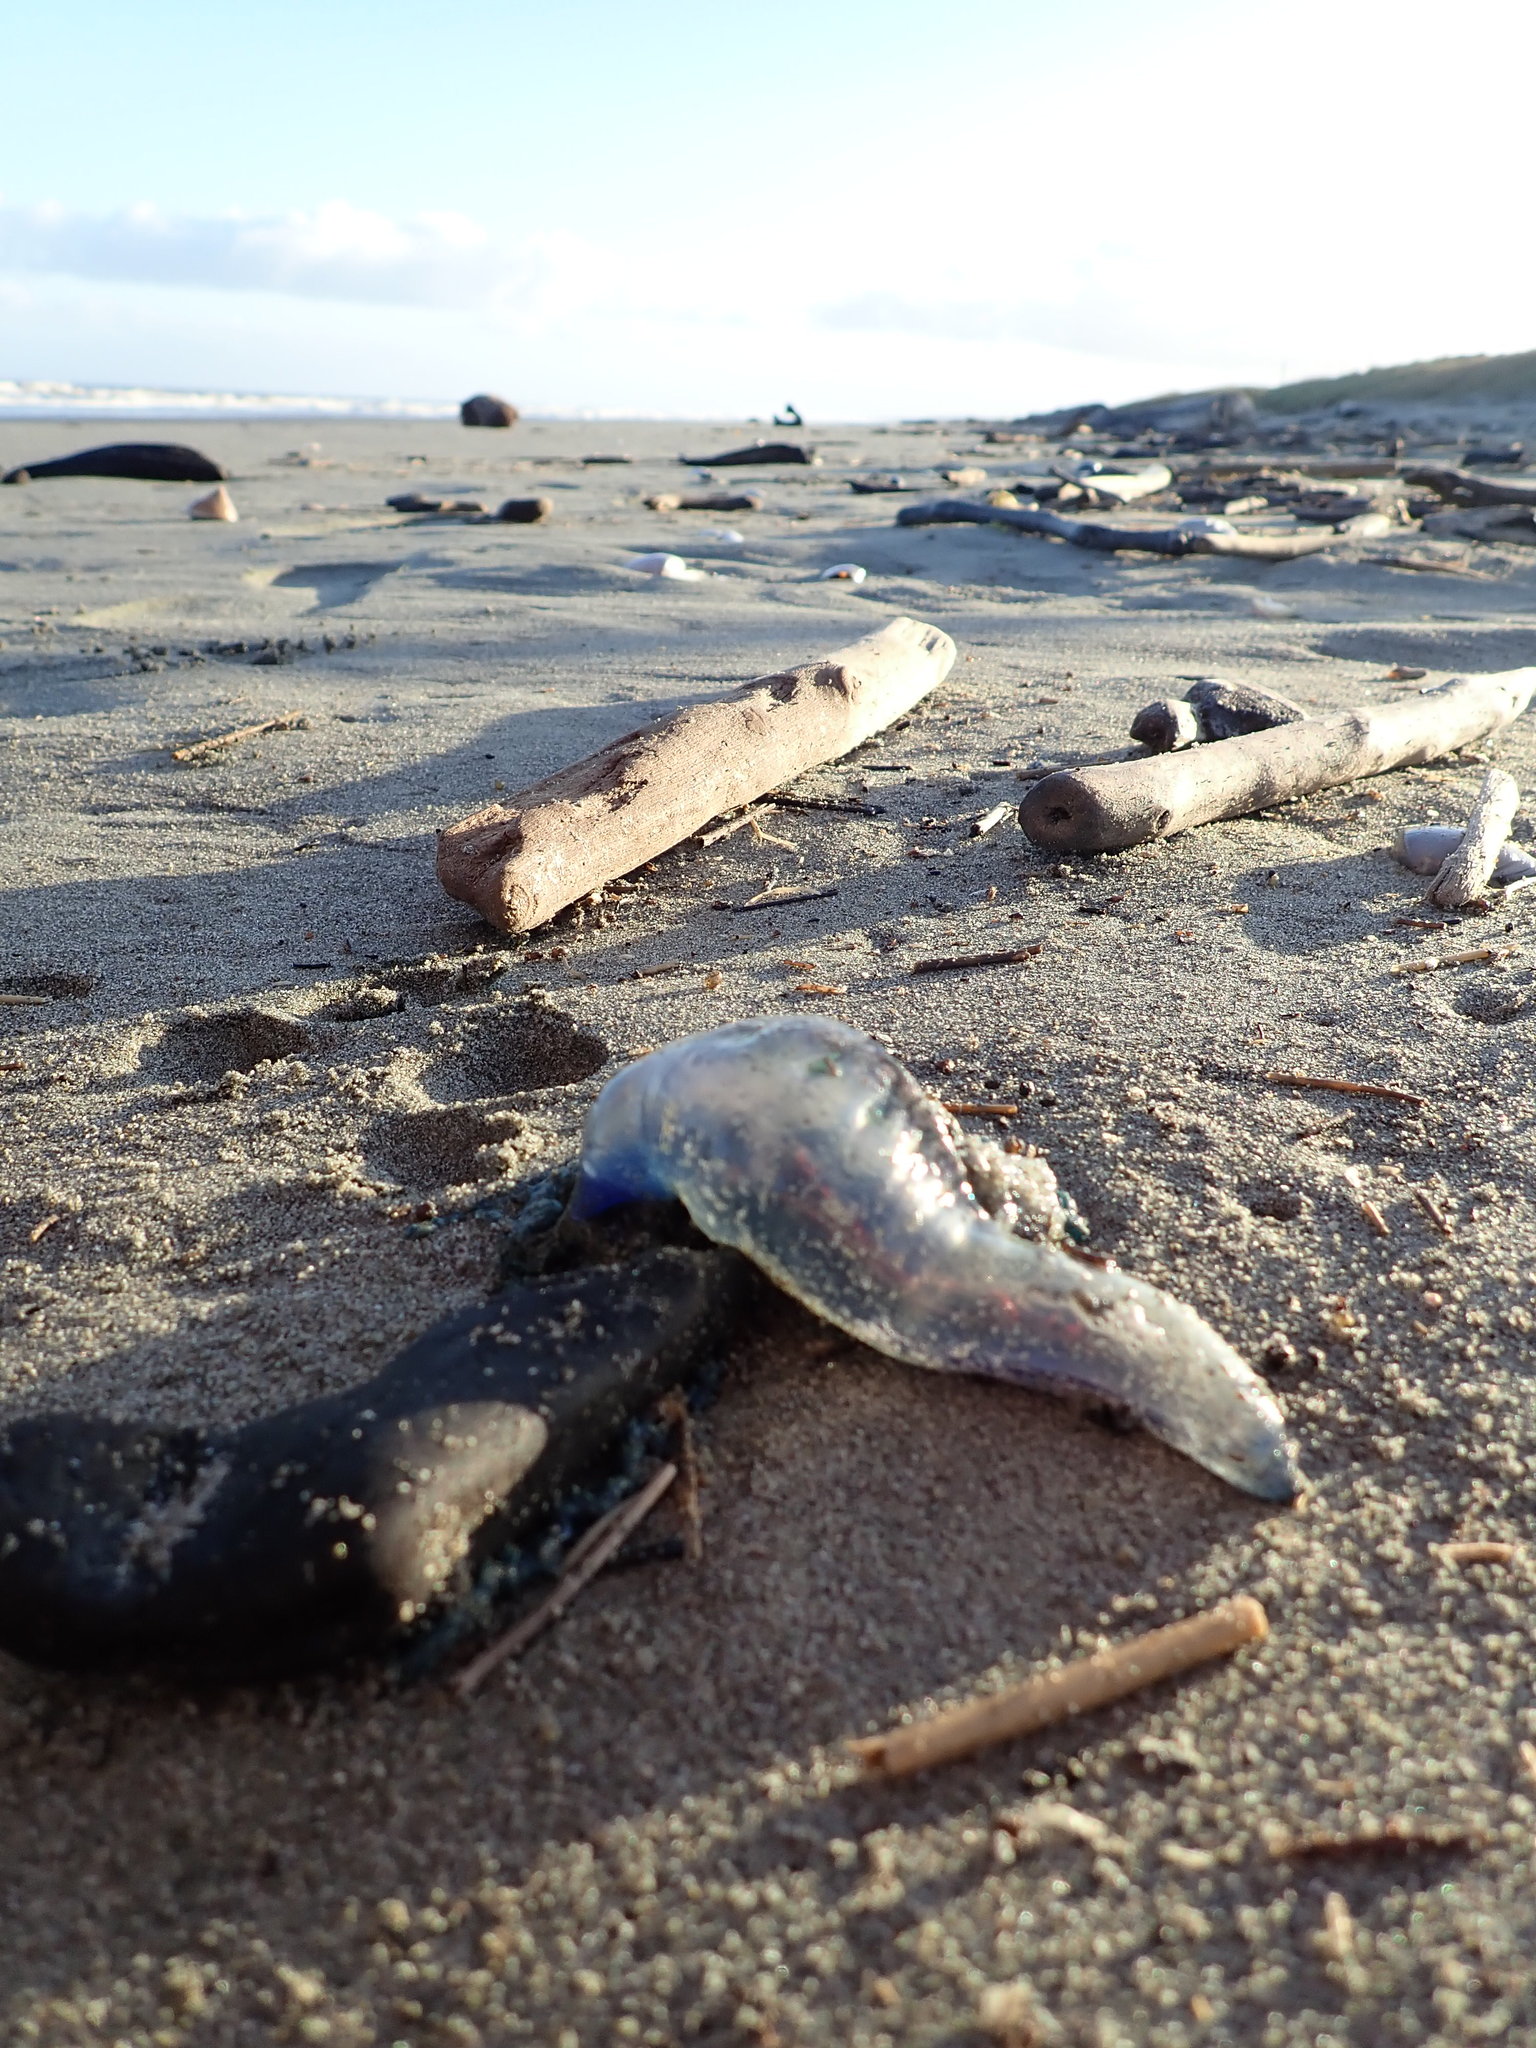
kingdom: Animalia
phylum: Cnidaria
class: Hydrozoa
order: Siphonophorae
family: Physaliidae
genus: Physalia
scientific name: Physalia physalis
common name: Portuguese man-of-war
